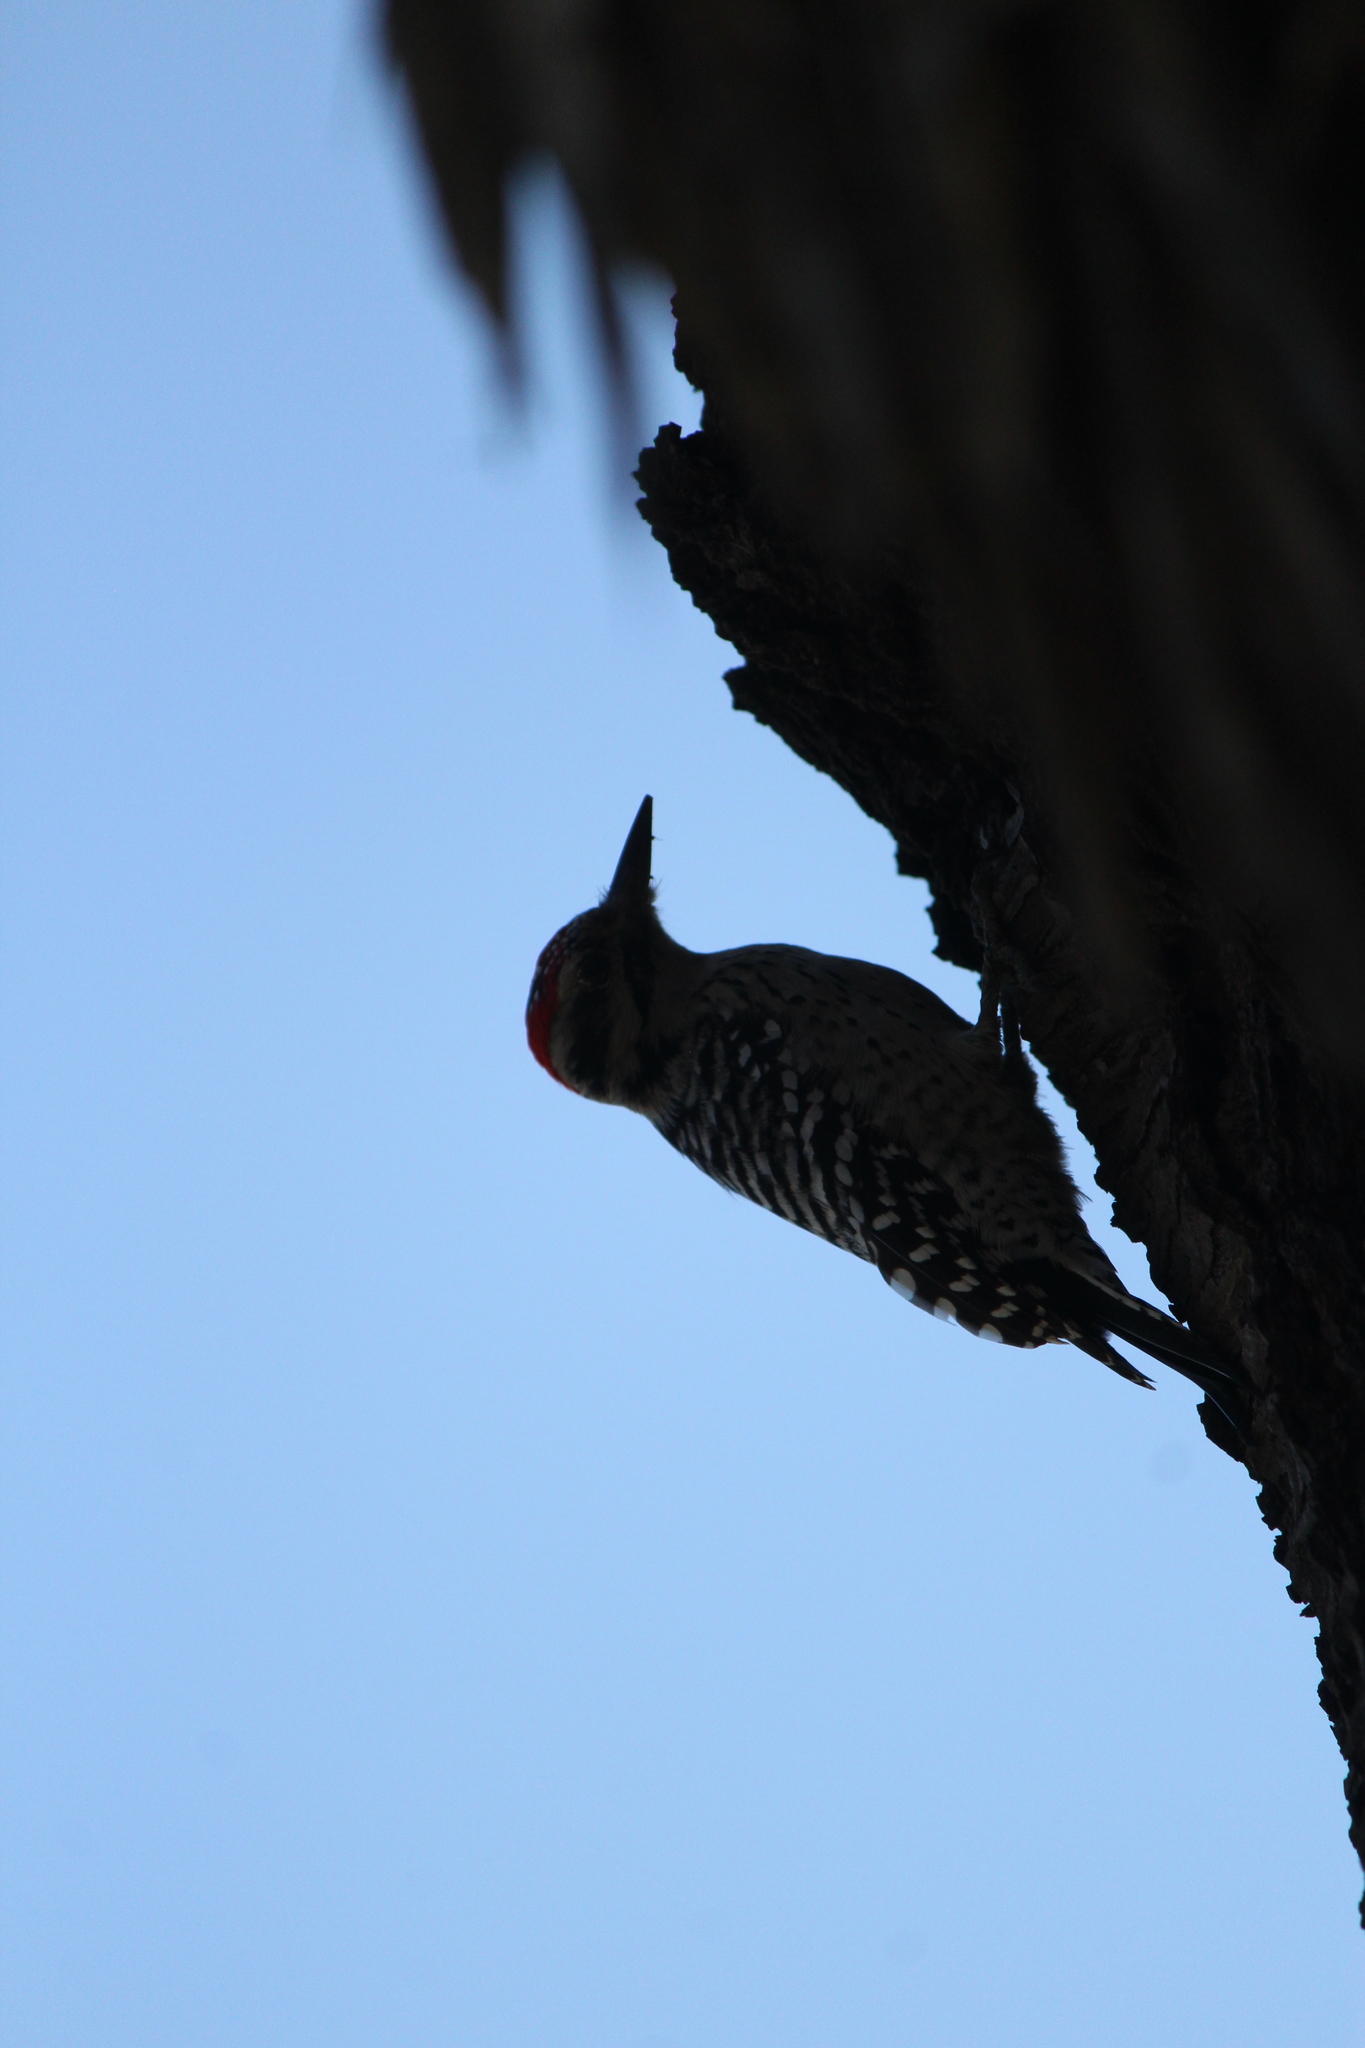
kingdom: Animalia
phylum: Chordata
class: Aves
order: Piciformes
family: Picidae
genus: Dryobates
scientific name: Dryobates scalaris
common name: Ladder-backed woodpecker
